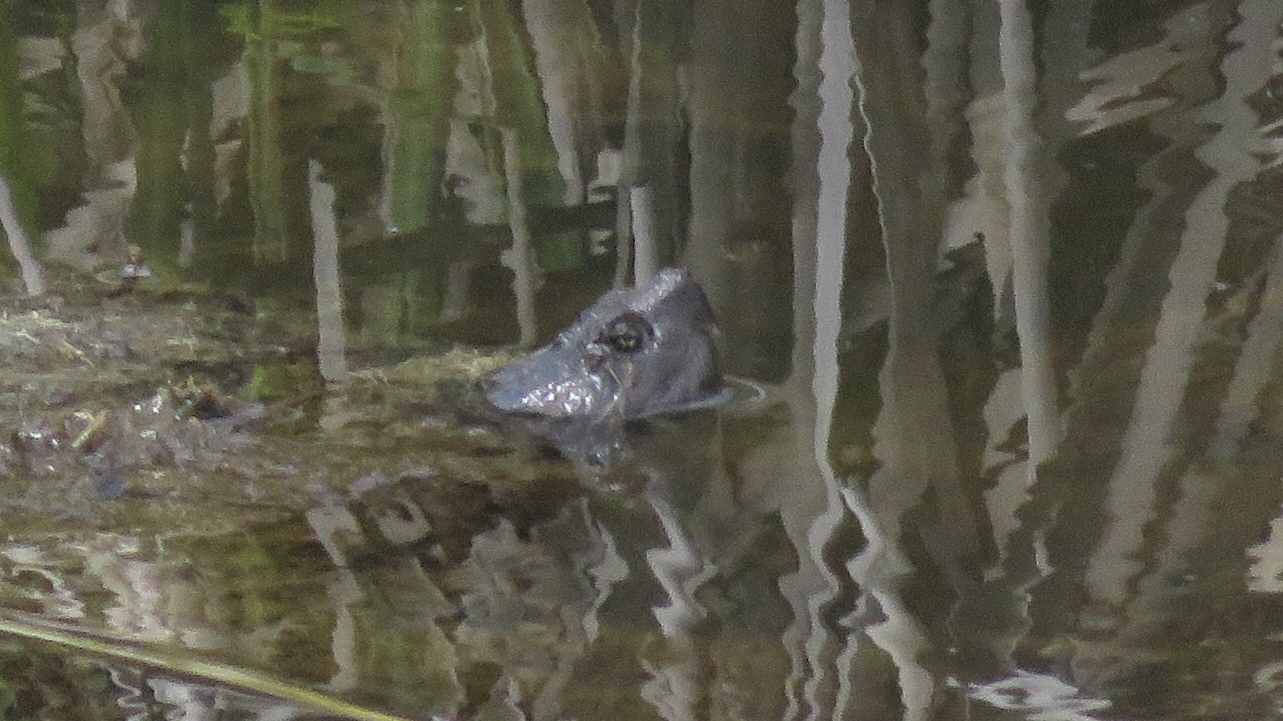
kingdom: Animalia
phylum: Chordata
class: Testudines
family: Chelydridae
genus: Chelydra
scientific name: Chelydra serpentina
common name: Common snapping turtle
